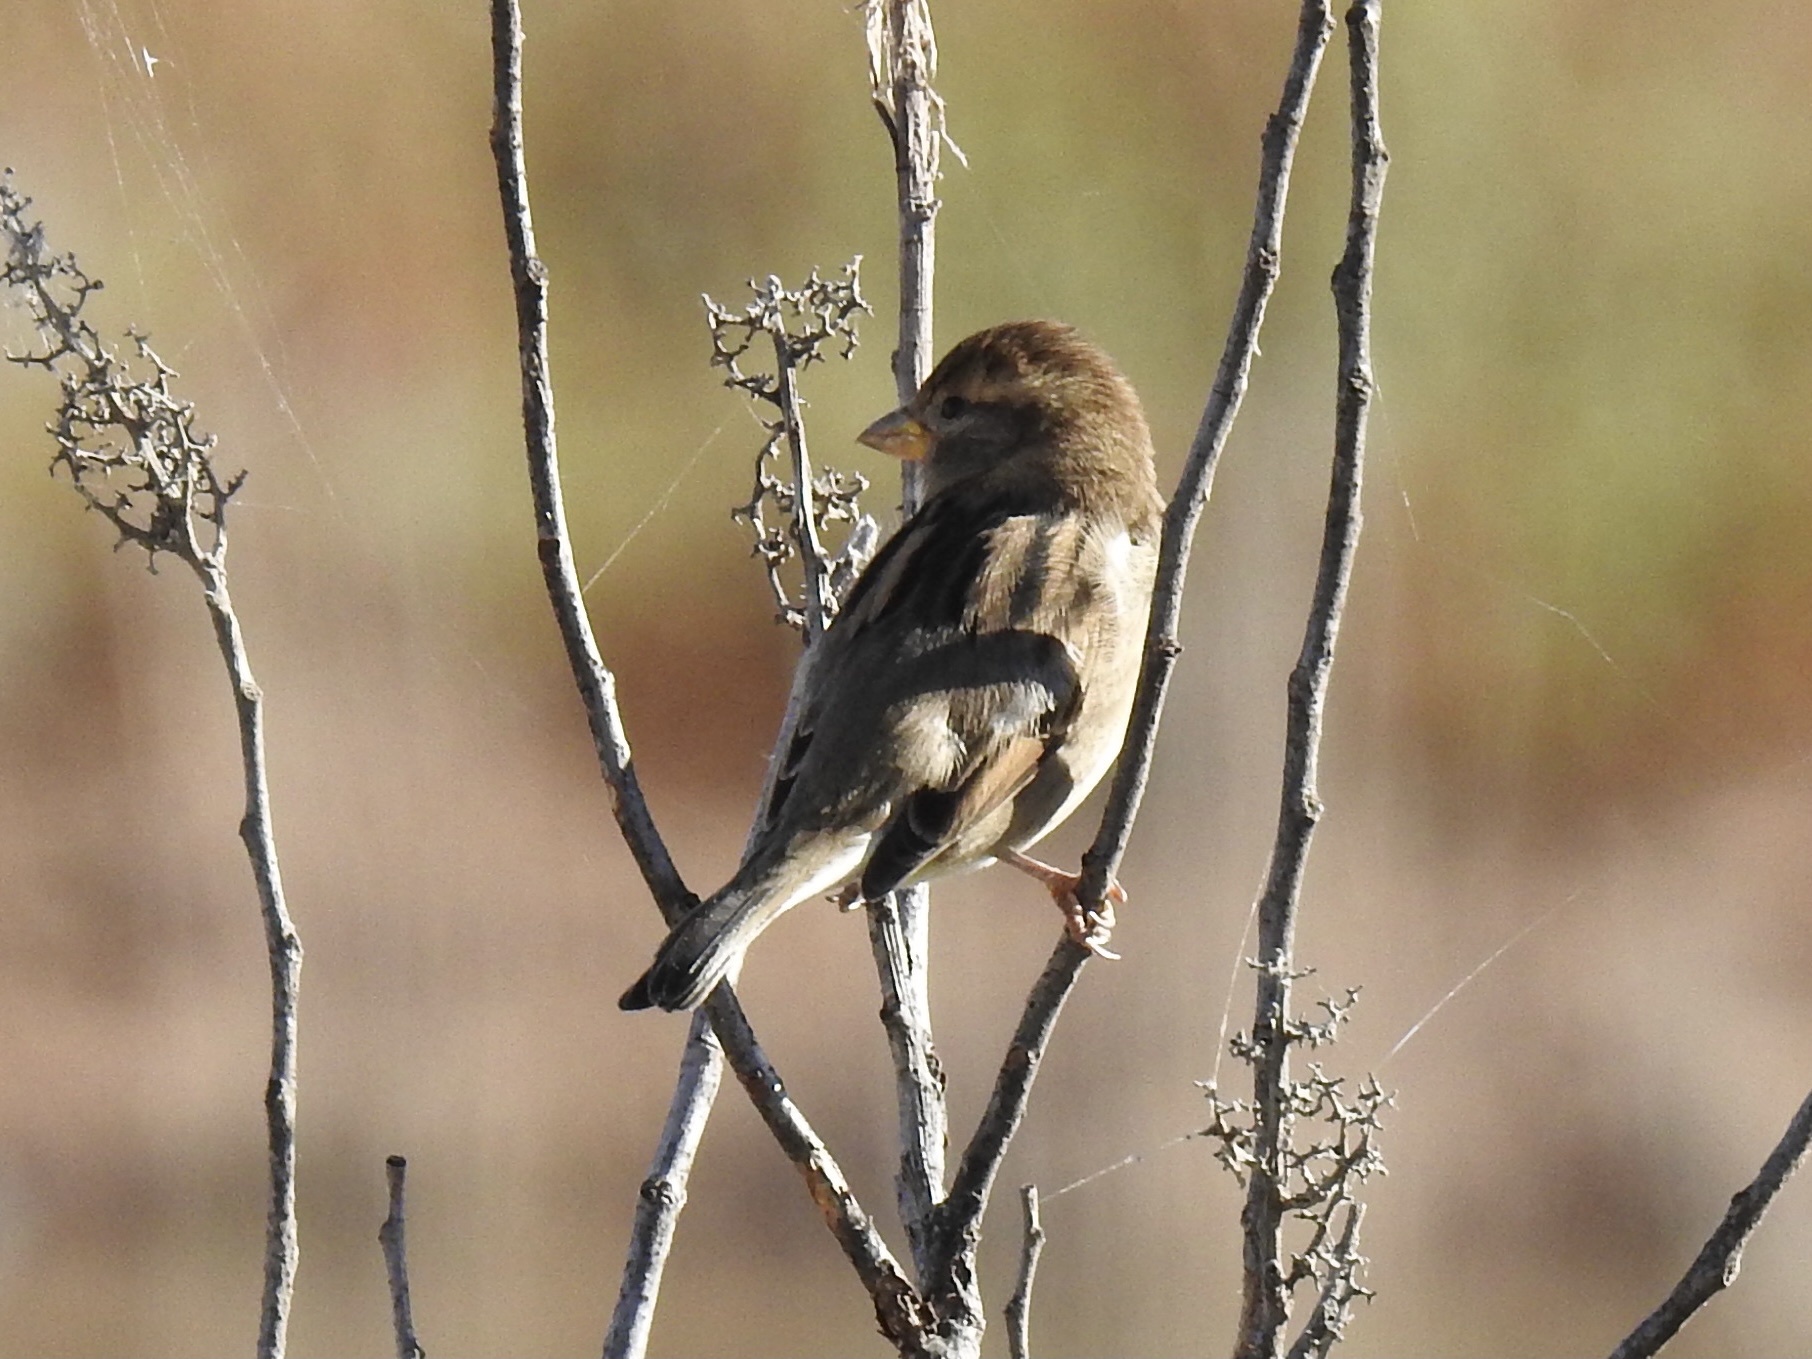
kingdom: Animalia
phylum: Chordata
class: Aves
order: Passeriformes
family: Passeridae
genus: Passer
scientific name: Passer domesticus
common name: House sparrow
